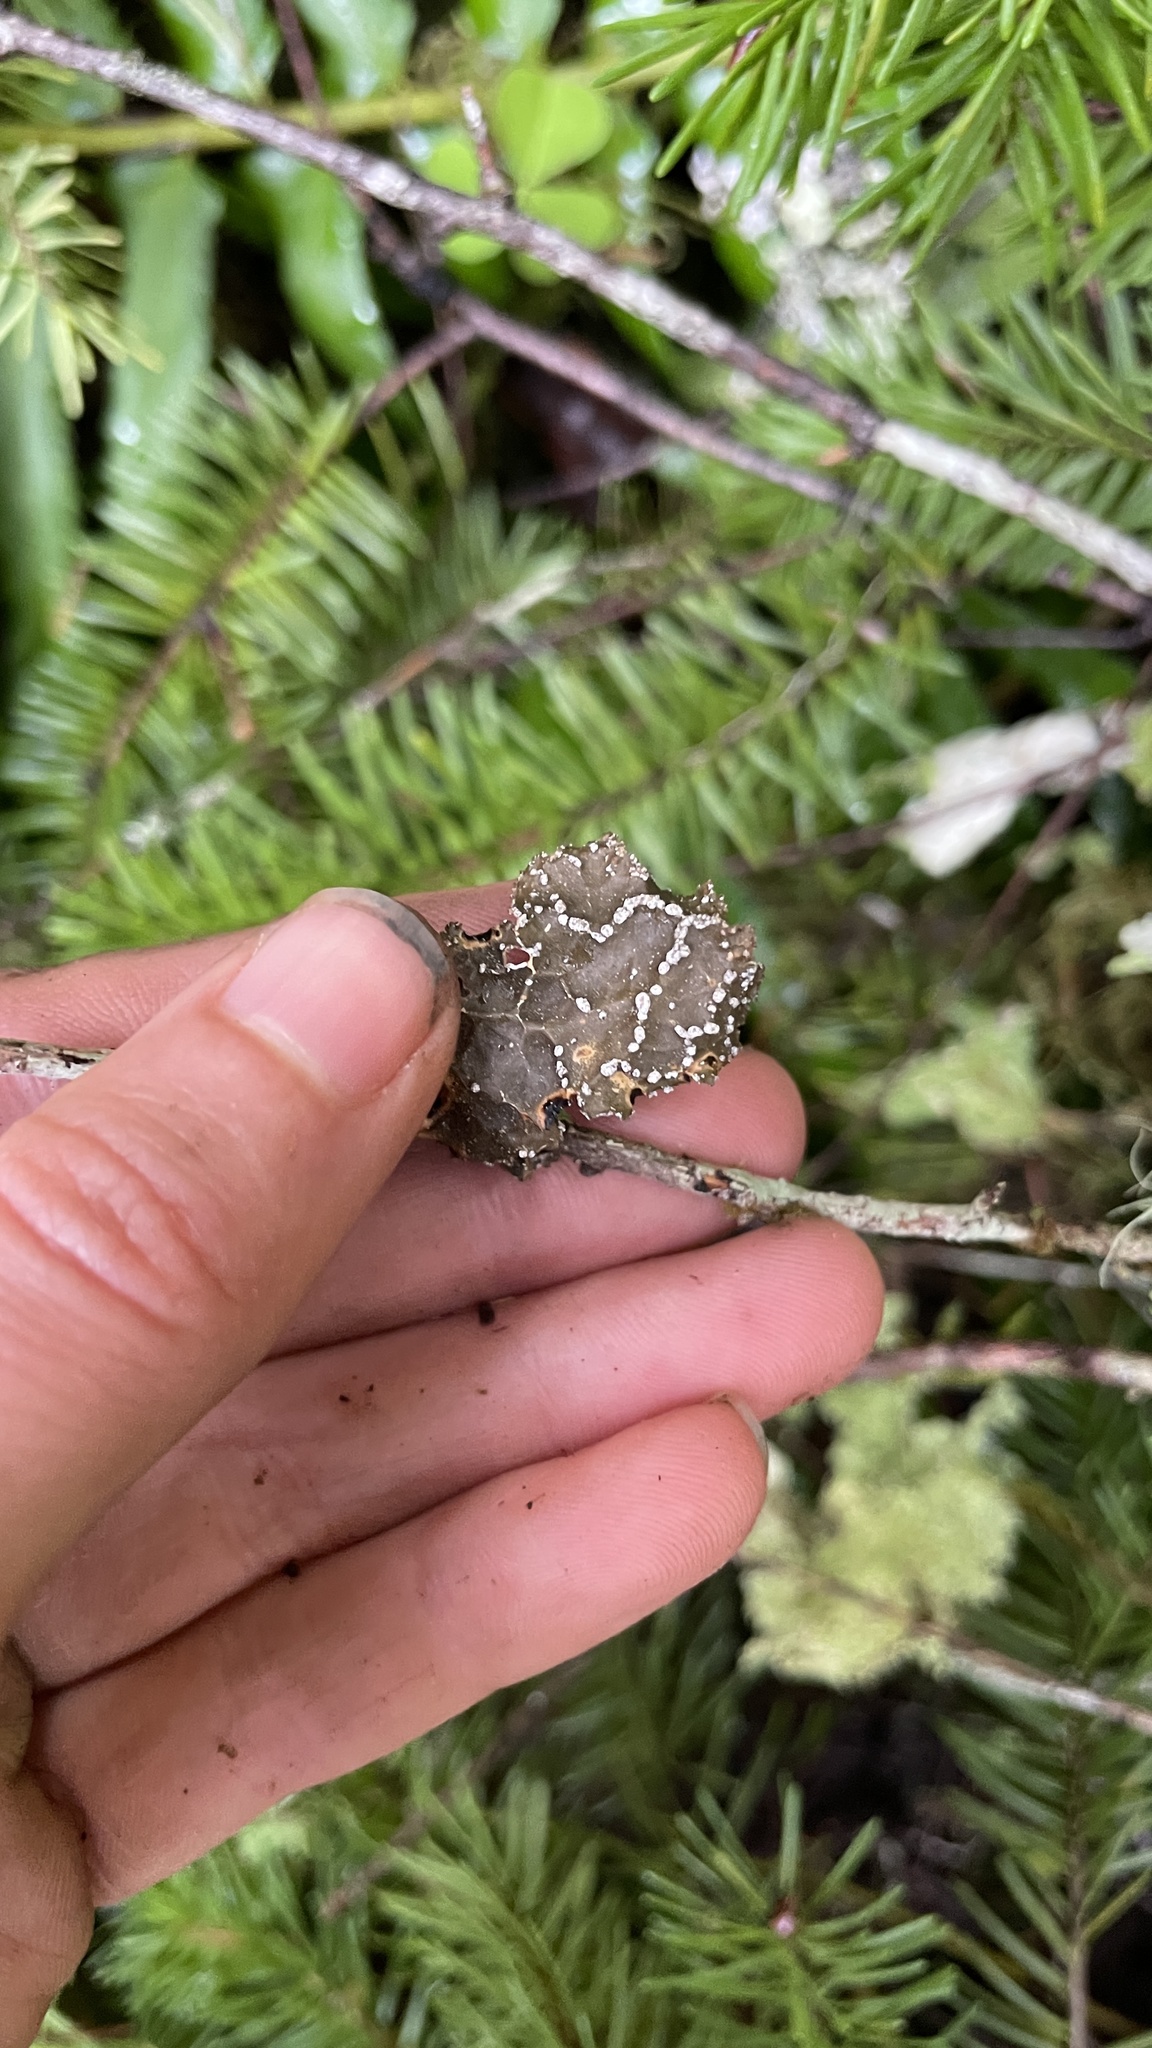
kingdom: Fungi
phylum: Ascomycota
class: Lecanoromycetes
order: Peltigerales
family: Lobariaceae
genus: Lobaria
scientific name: Lobaria anomala
